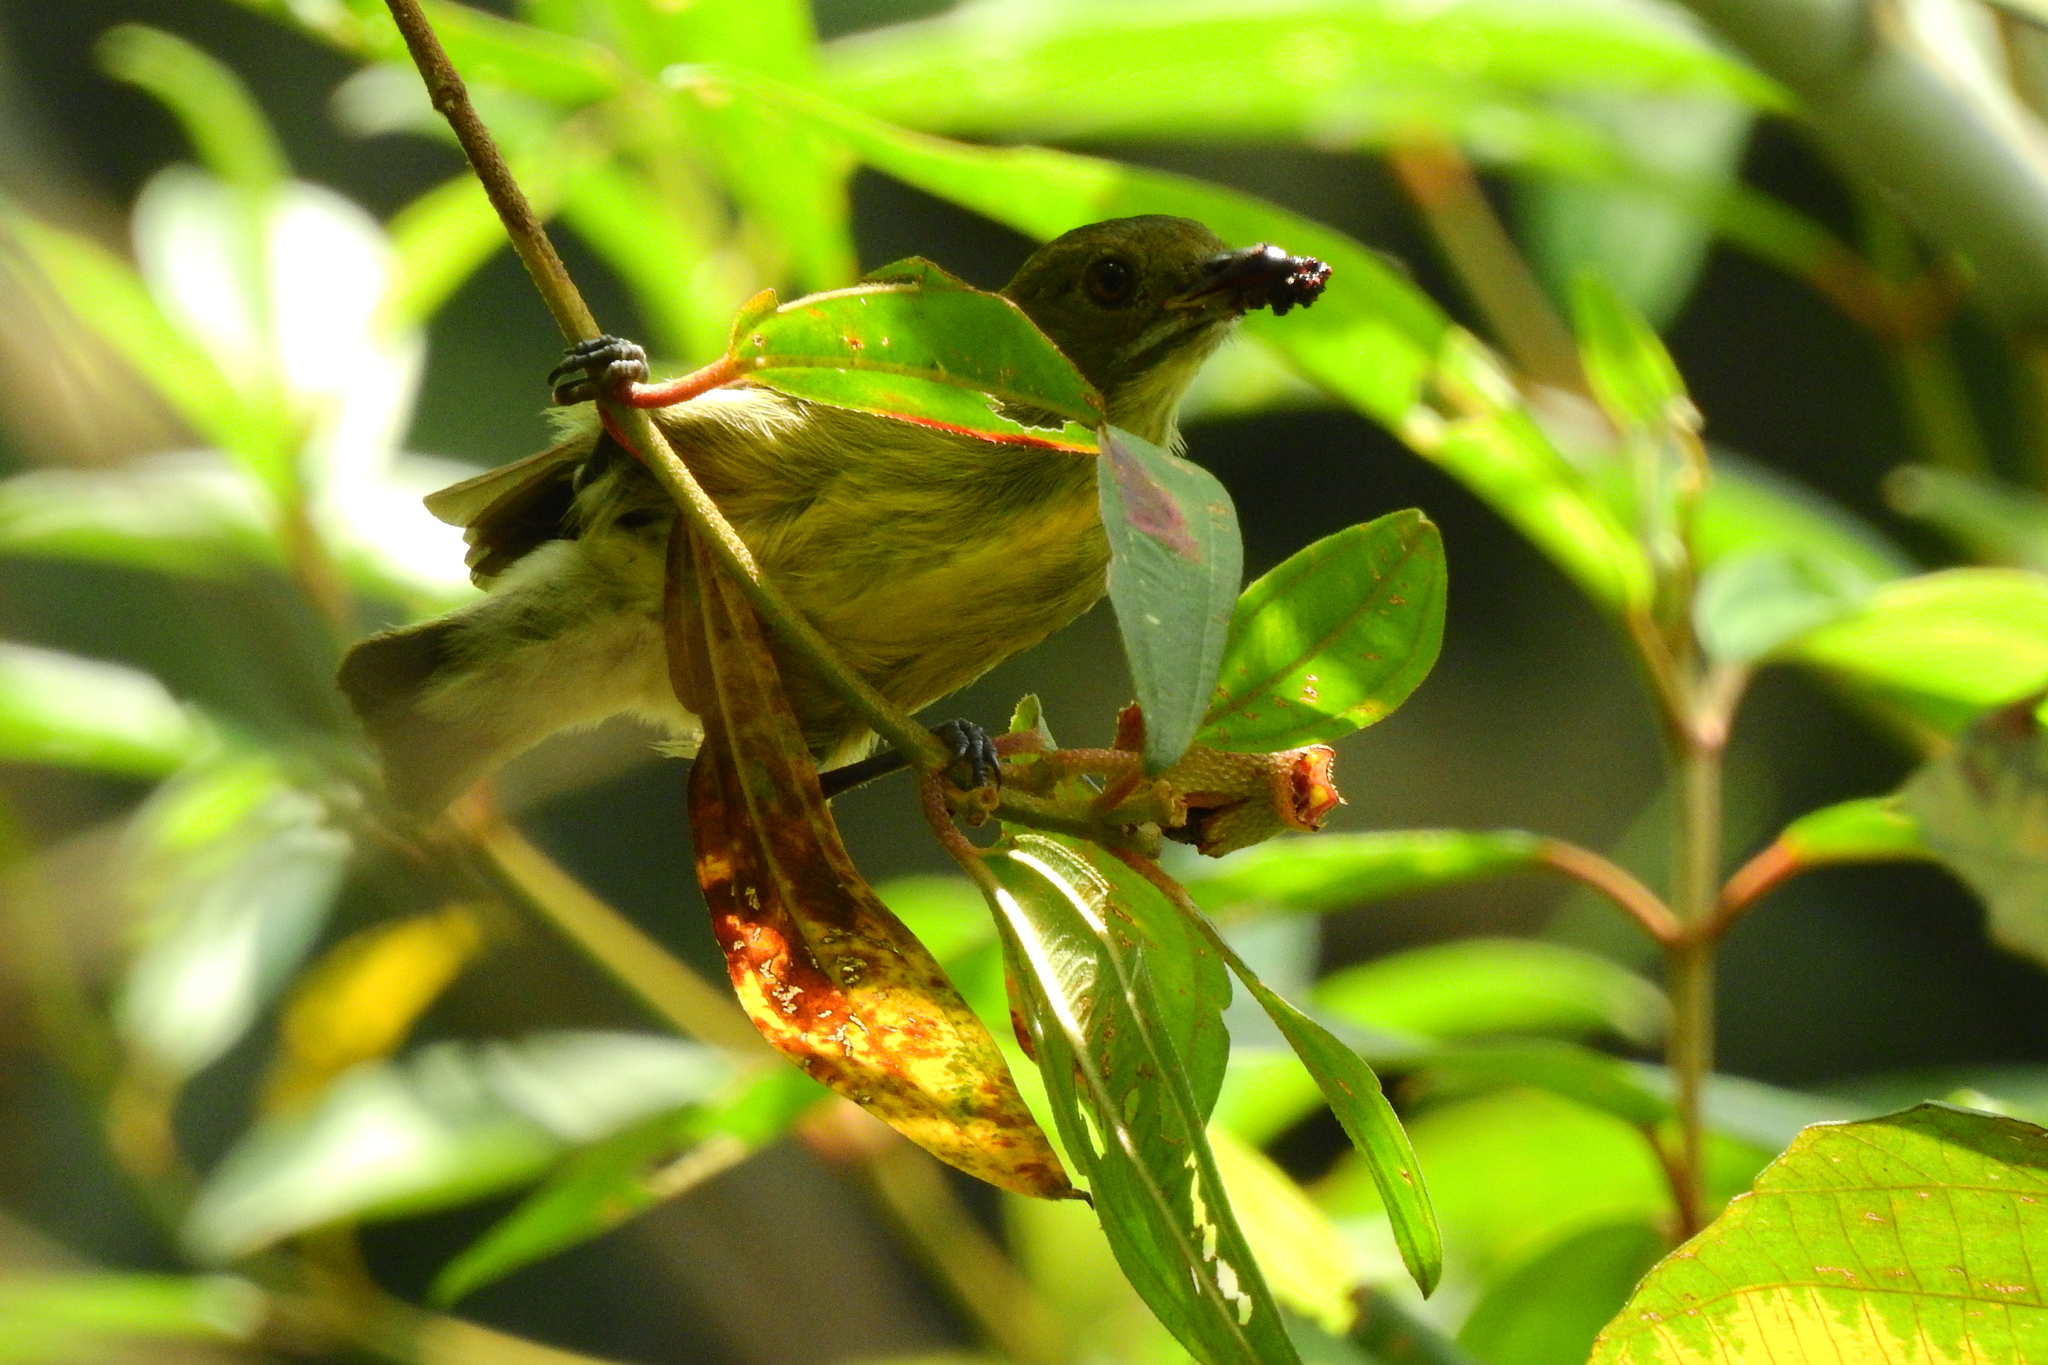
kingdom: Animalia
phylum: Chordata
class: Aves
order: Passeriformes
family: Dicaeidae
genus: Prionochilus
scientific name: Prionochilus maculatus
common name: Yellow-breasted flowerpecker
